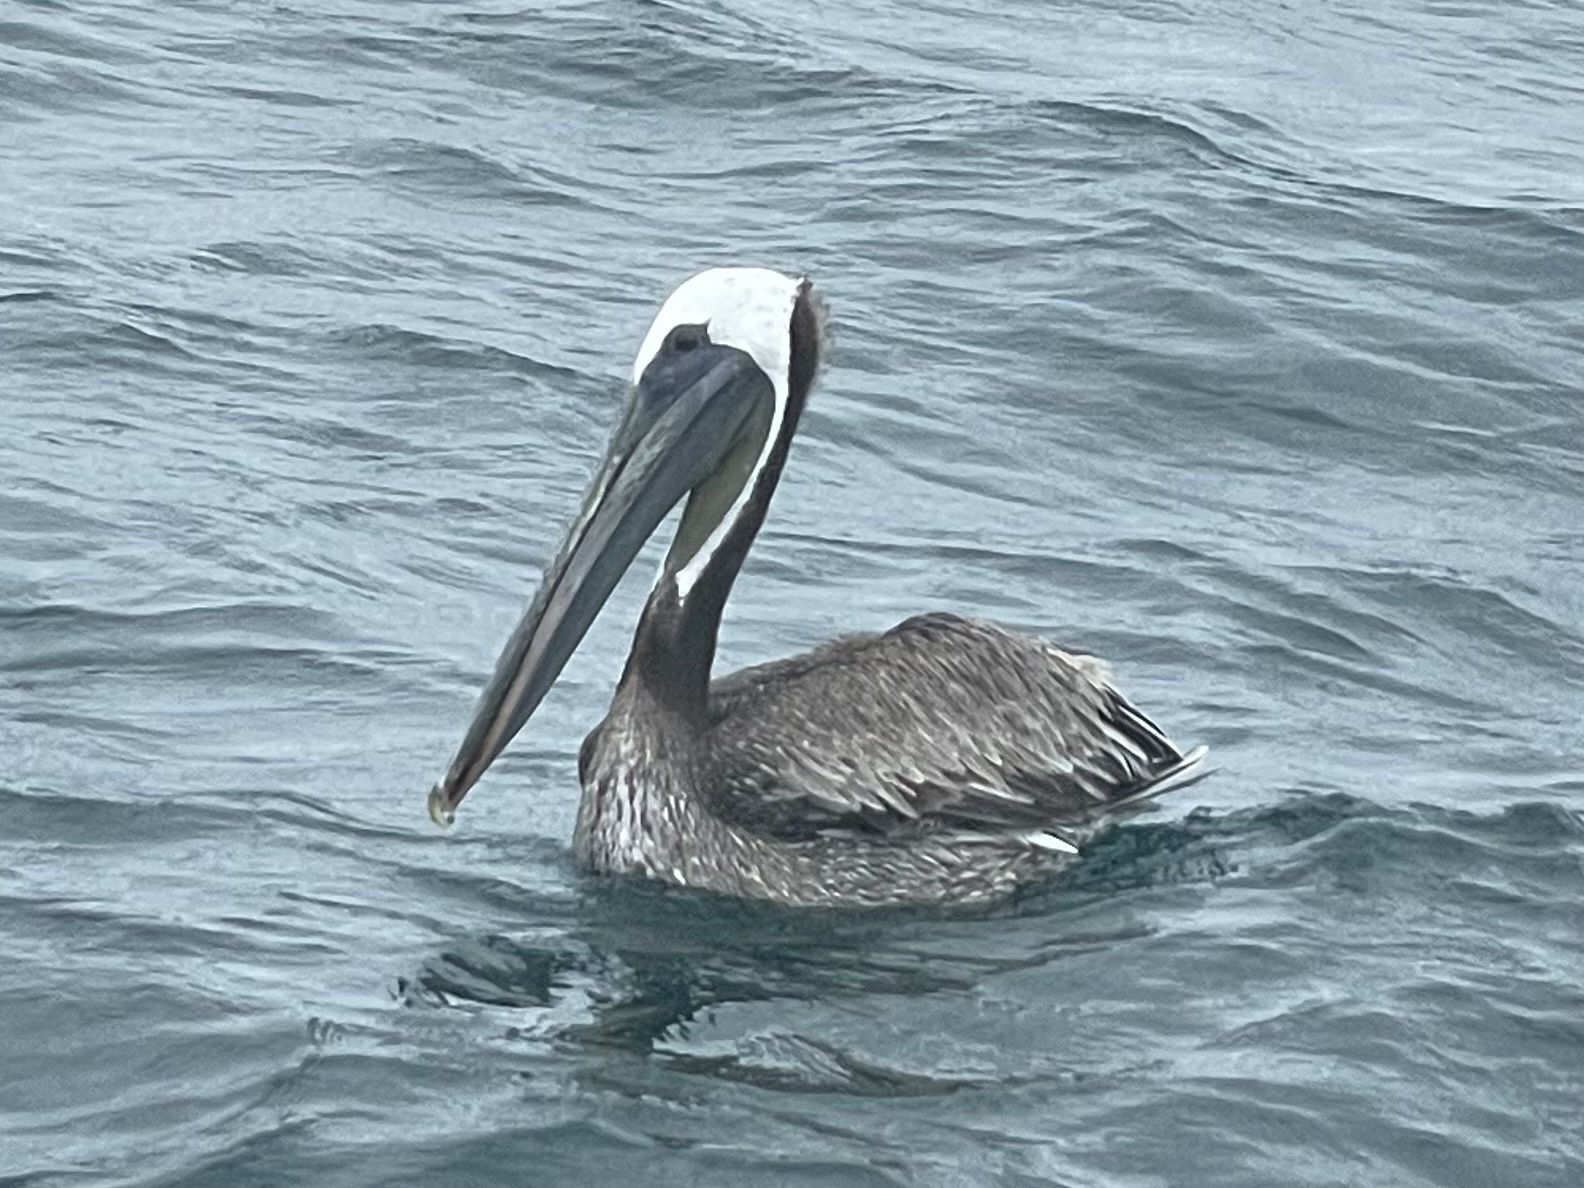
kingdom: Animalia
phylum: Chordata
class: Aves
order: Pelecaniformes
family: Pelecanidae
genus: Pelecanus
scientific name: Pelecanus occidentalis
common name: Brown pelican
